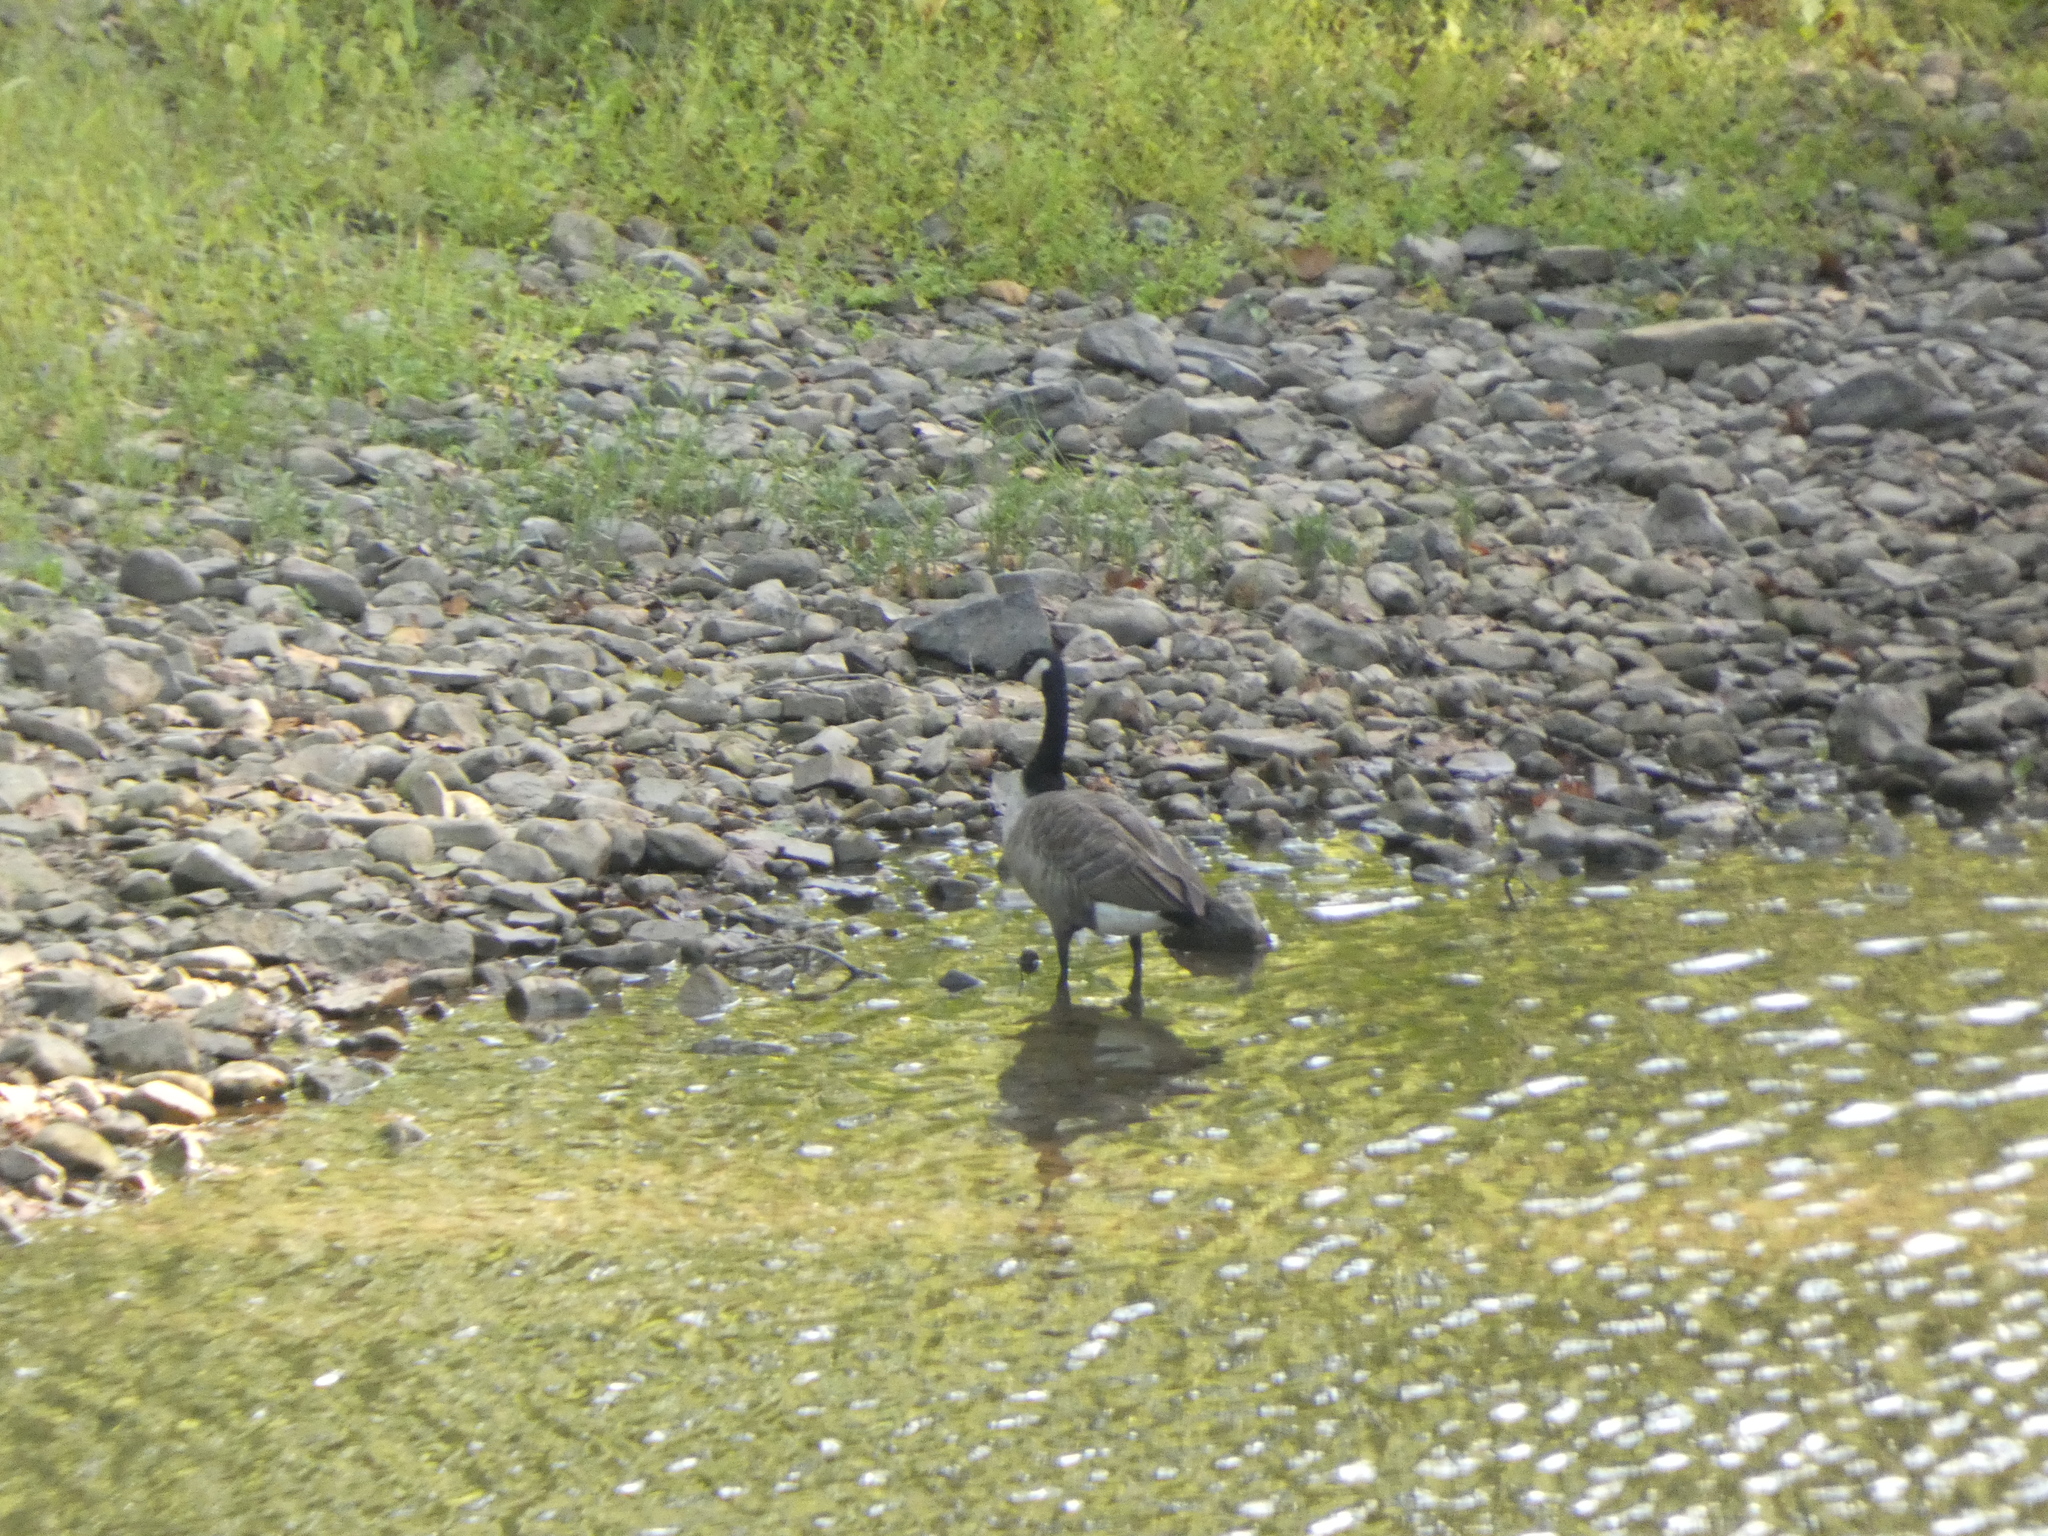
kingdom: Animalia
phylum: Chordata
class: Aves
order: Anseriformes
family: Anatidae
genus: Branta
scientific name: Branta canadensis
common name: Canada goose
